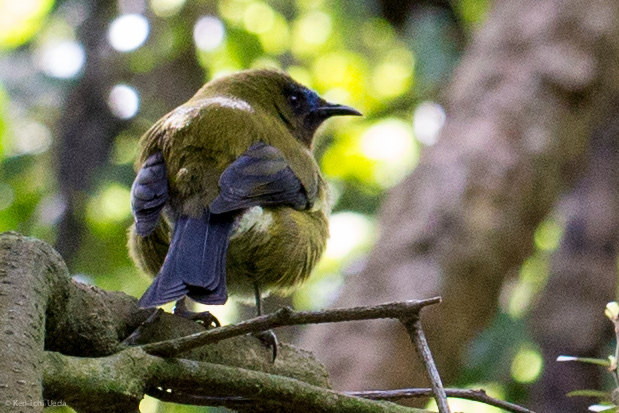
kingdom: Animalia
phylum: Chordata
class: Aves
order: Passeriformes
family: Meliphagidae
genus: Anthornis
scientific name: Anthornis melanura
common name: New zealand bellbird
